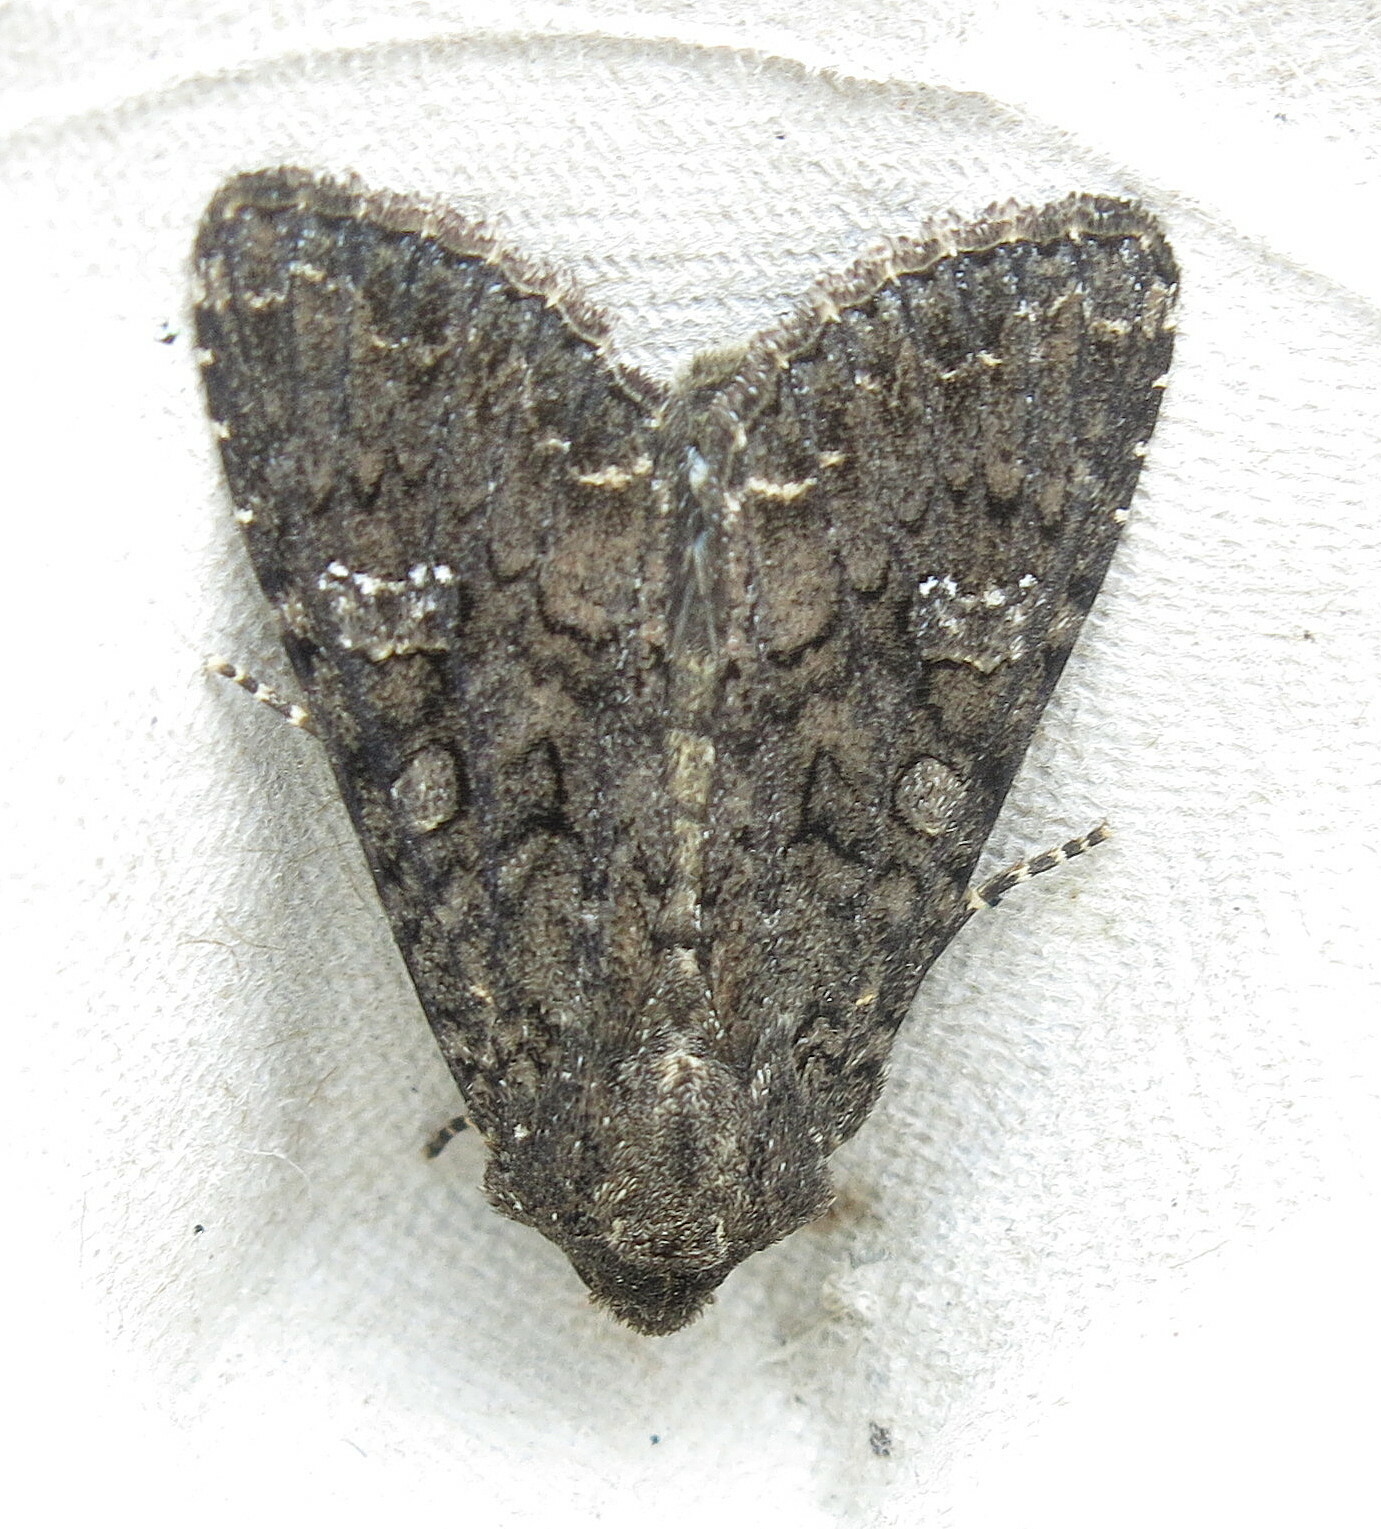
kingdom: Animalia
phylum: Arthropoda
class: Insecta
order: Lepidoptera
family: Noctuidae
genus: Mamestra
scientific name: Mamestra brassicae
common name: Cabbage moth
